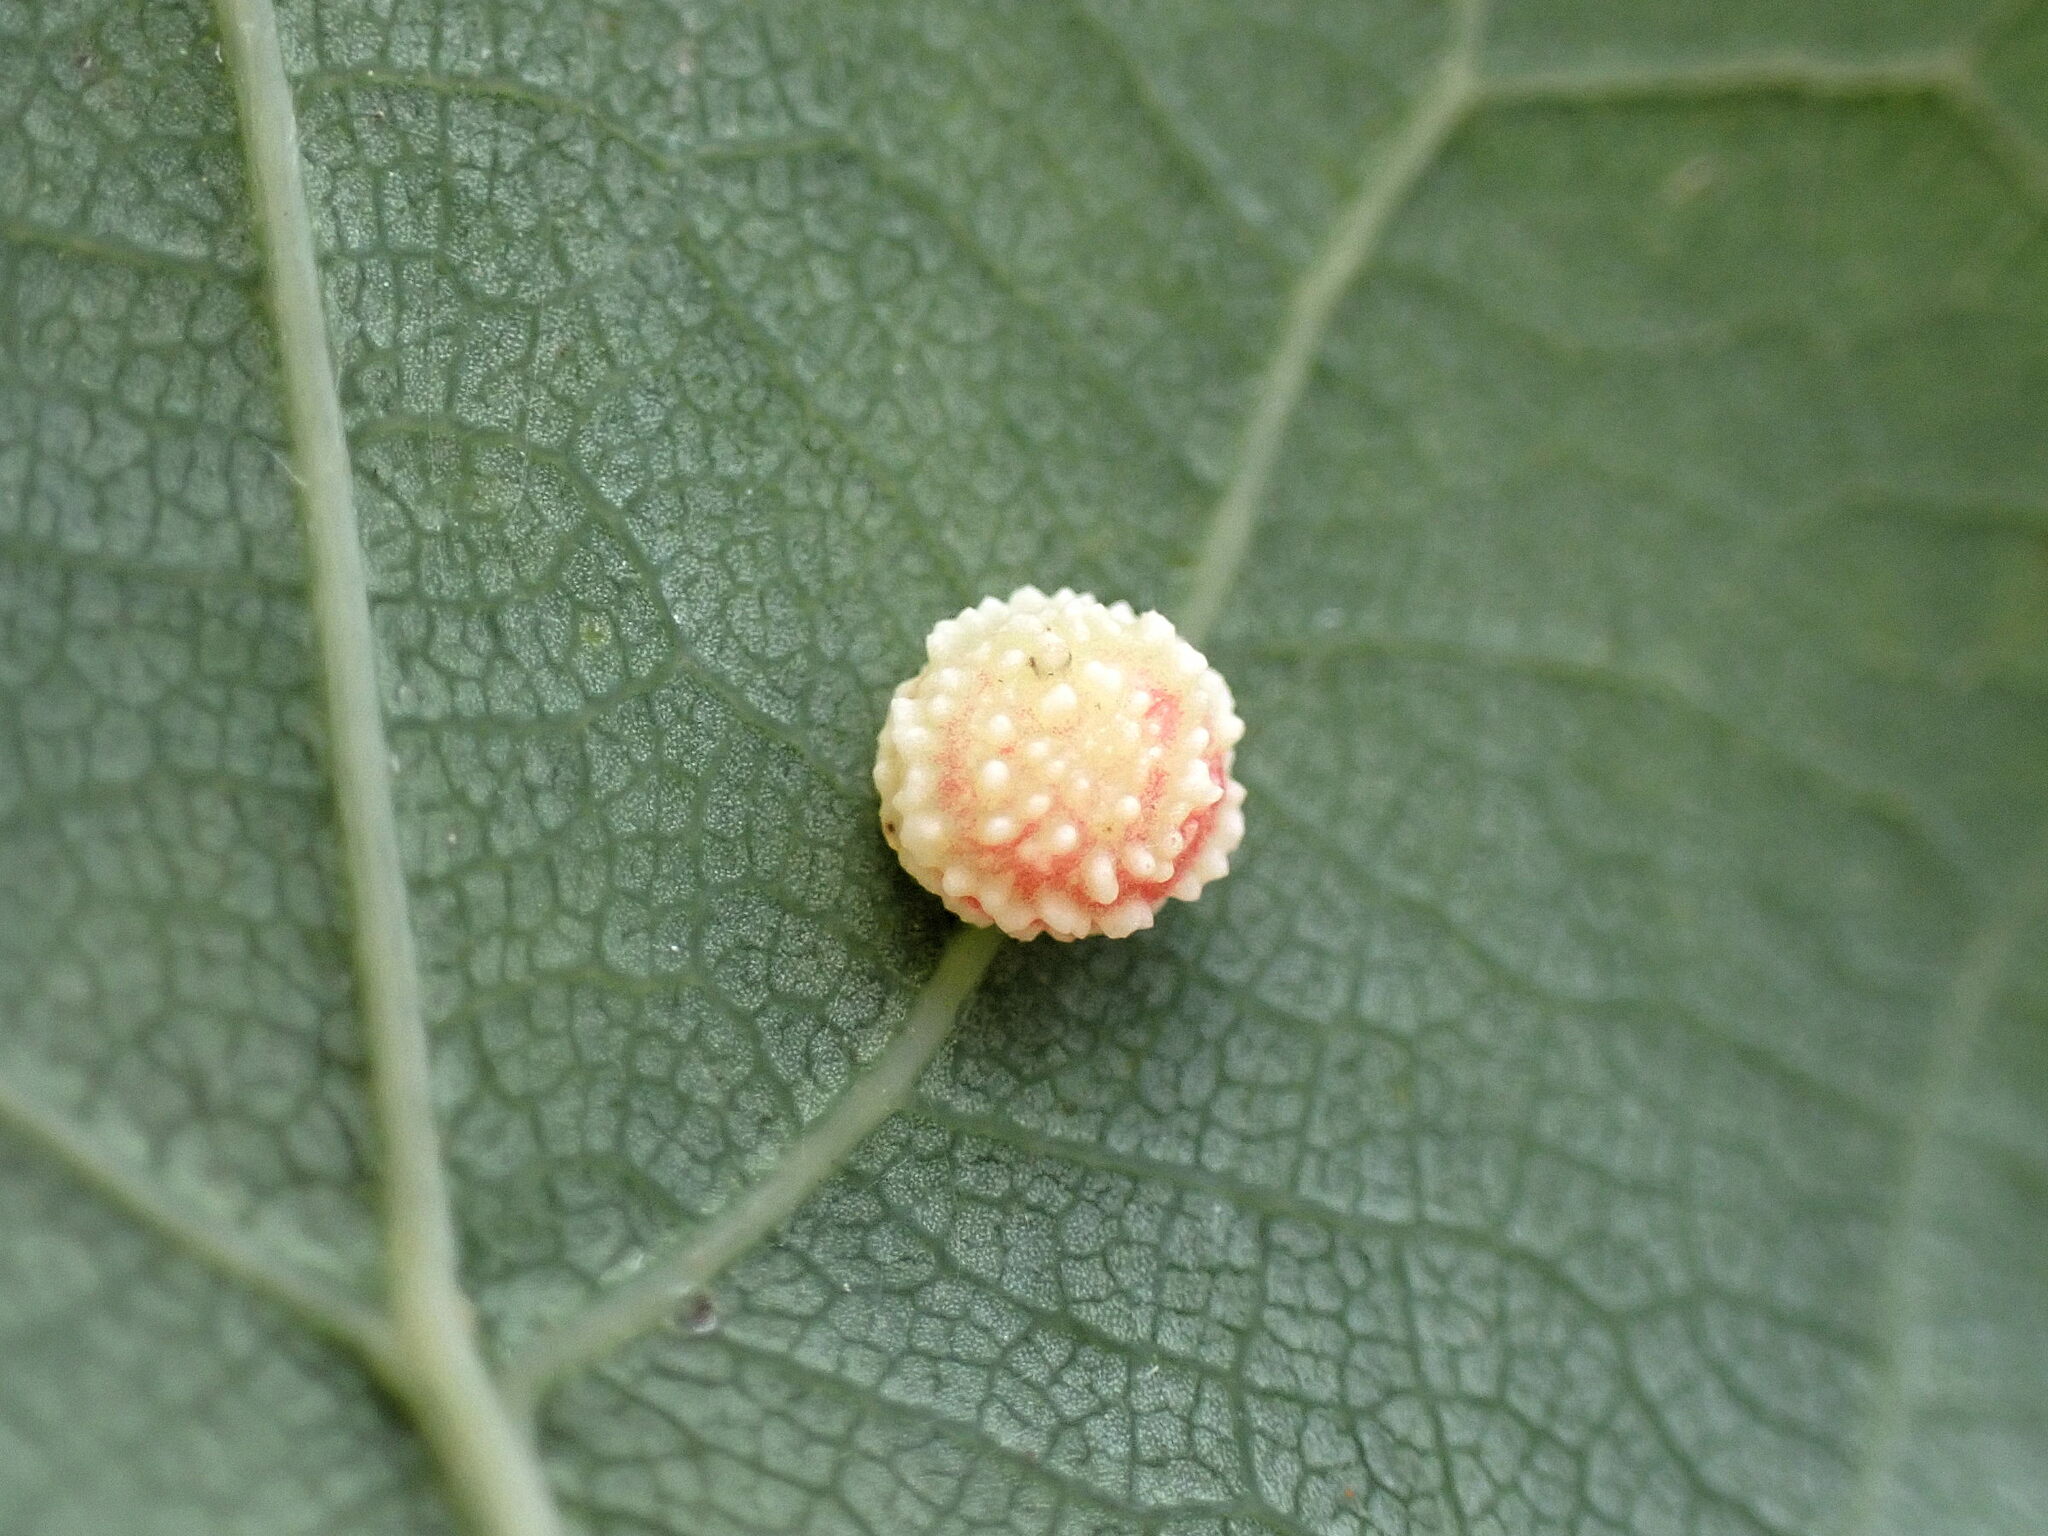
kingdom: Animalia
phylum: Arthropoda
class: Insecta
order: Hymenoptera
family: Cynipidae
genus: Cynips
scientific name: Cynips longiventris
